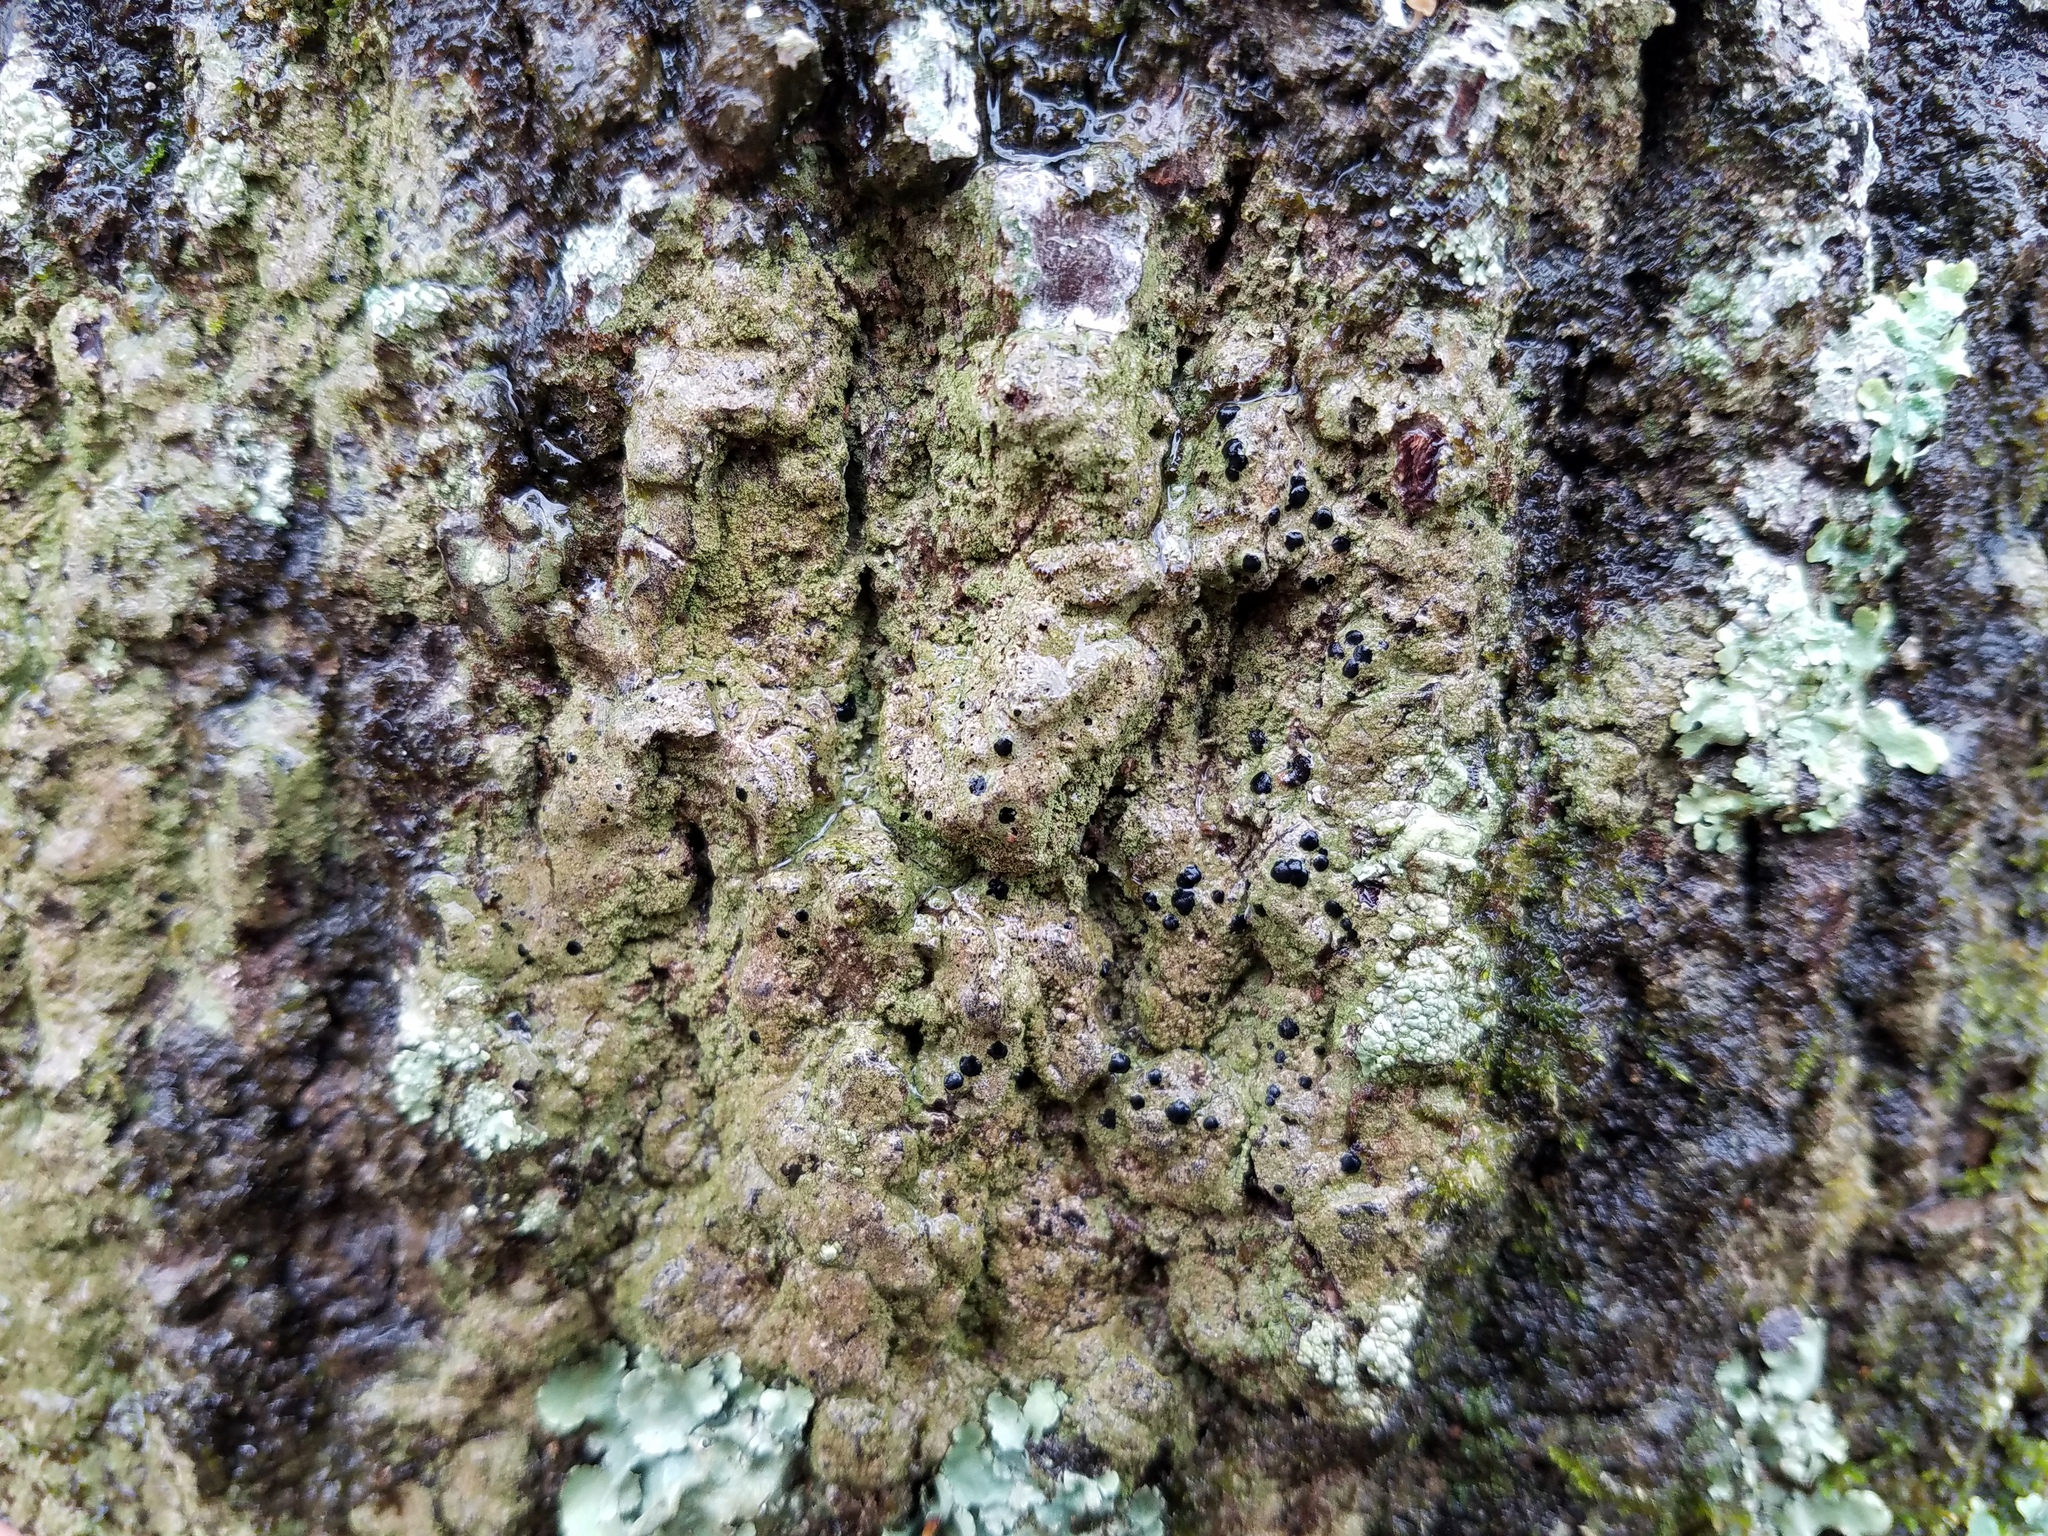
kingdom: Fungi
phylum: Ascomycota
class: Lecanoromycetes
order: Lecanorales
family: Ramalinaceae
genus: Bacidia
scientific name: Bacidia schweinitzii
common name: Surprise lichen
